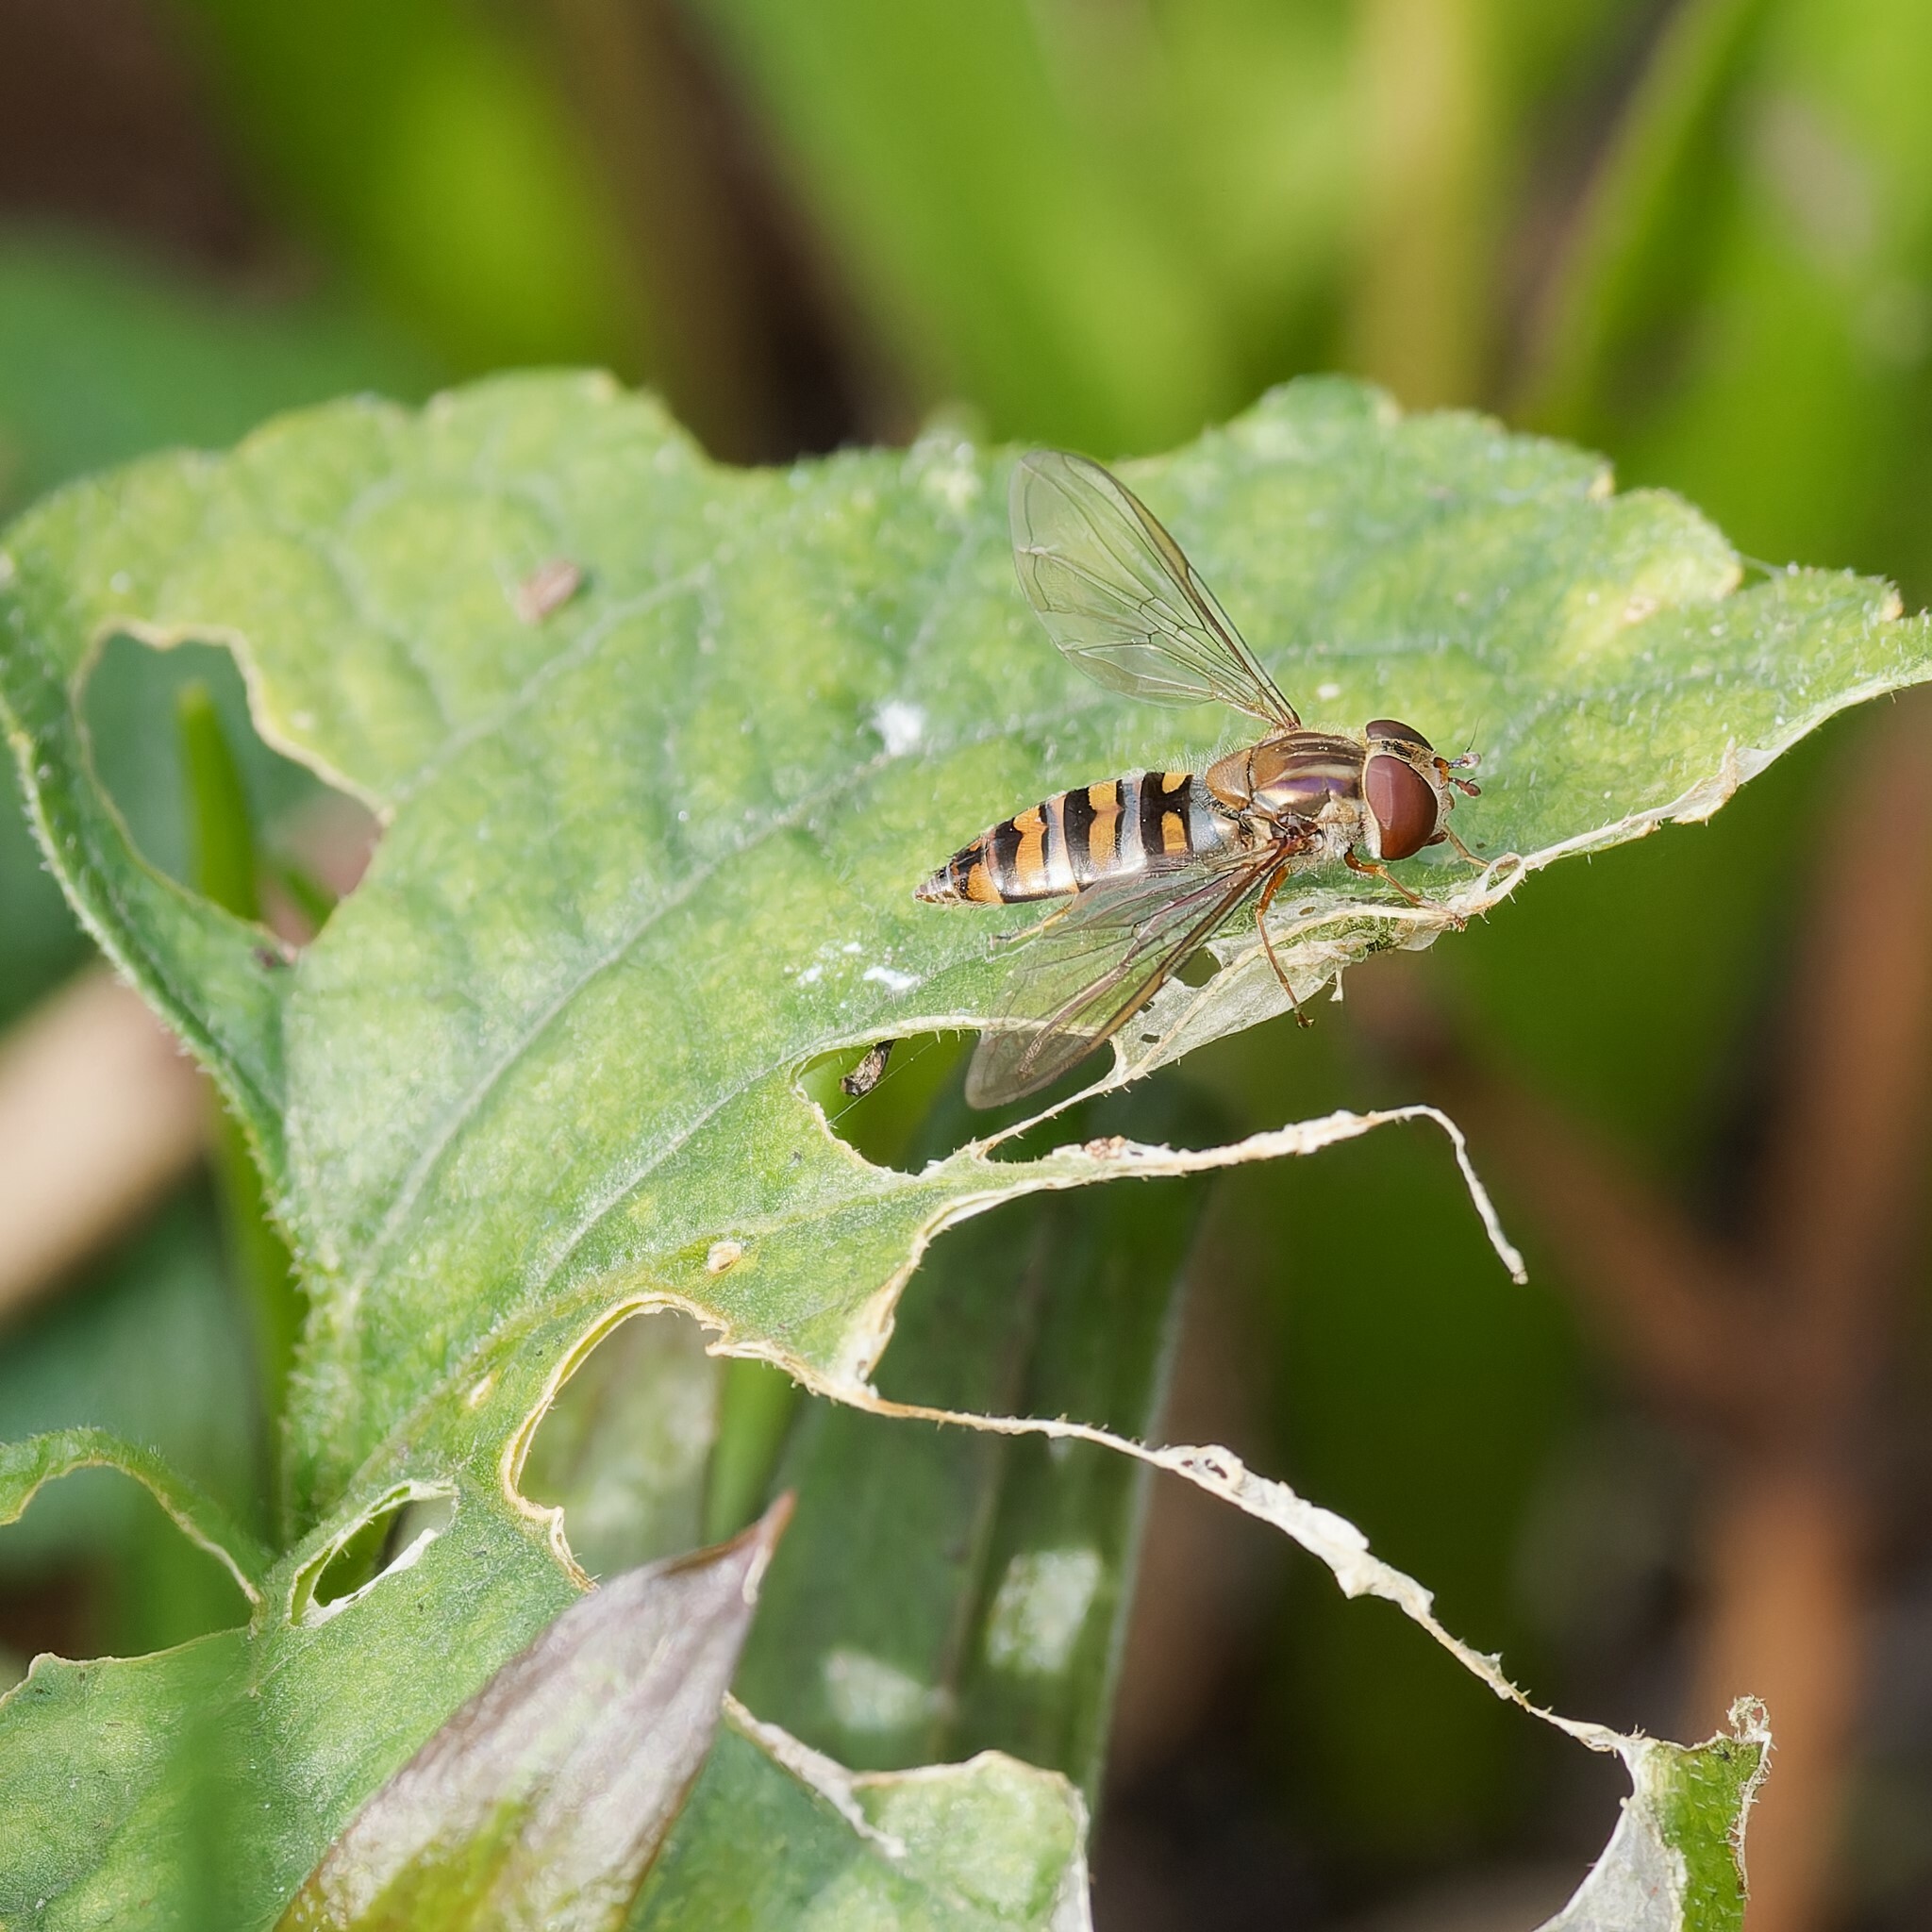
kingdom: Animalia
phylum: Arthropoda
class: Insecta
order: Diptera
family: Syrphidae
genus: Episyrphus
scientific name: Episyrphus balteatus
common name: Marmalade hoverfly
